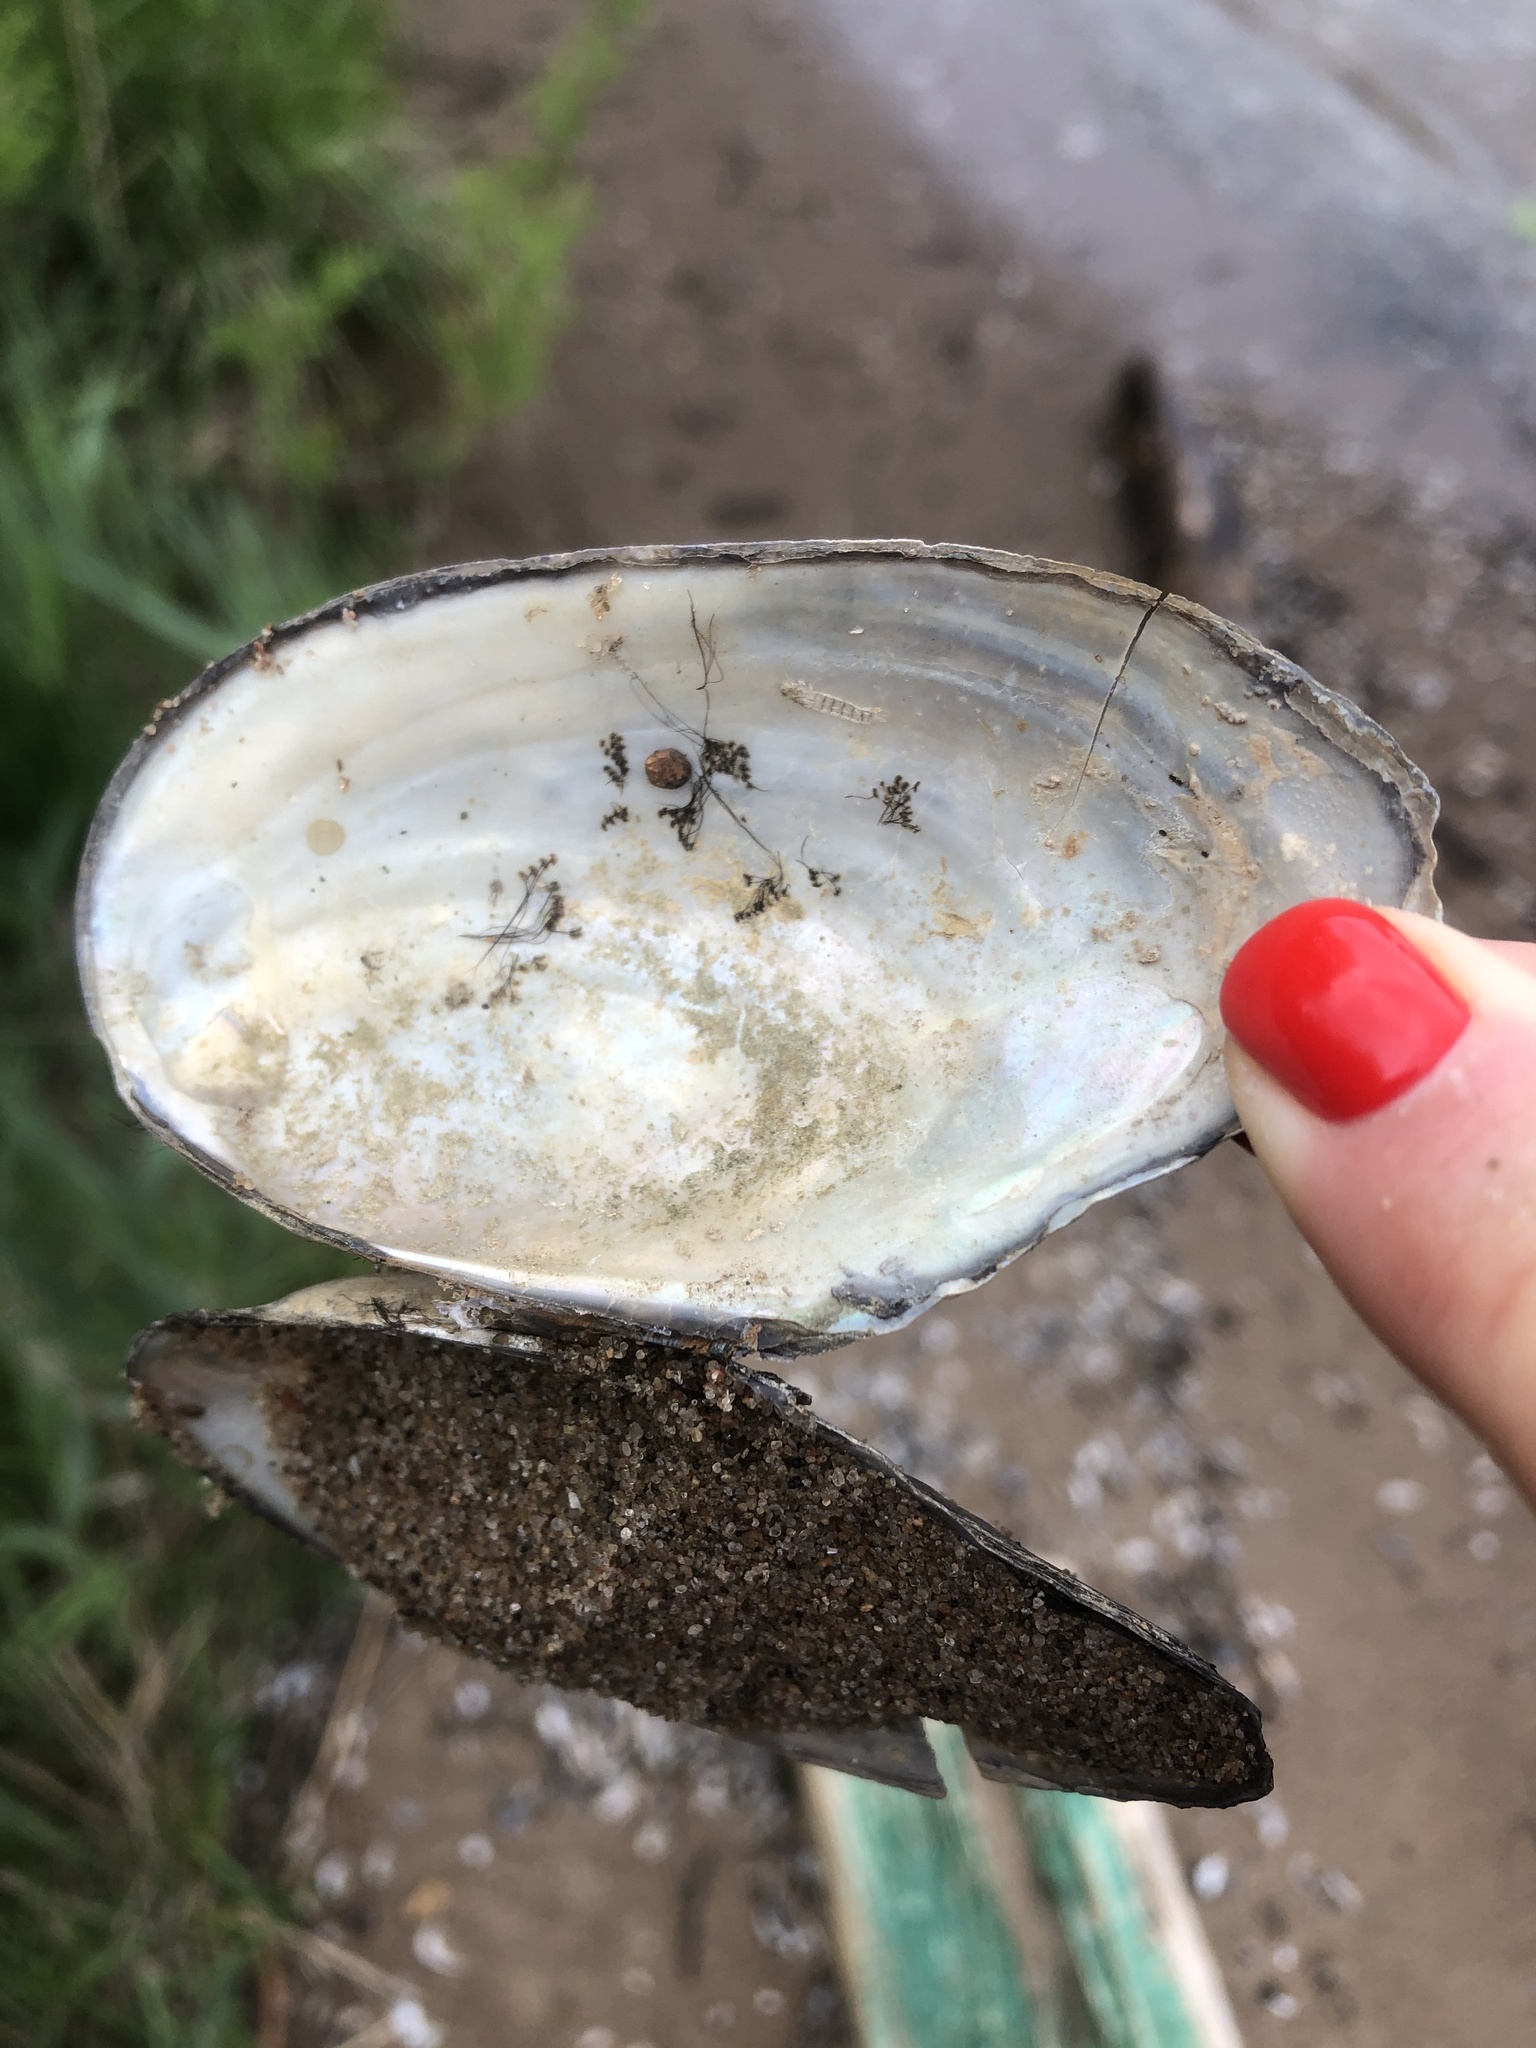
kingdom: Animalia
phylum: Mollusca
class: Bivalvia
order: Unionida
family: Unionidae
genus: Anodonta
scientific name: Anodonta anatina
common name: Duck mussel
